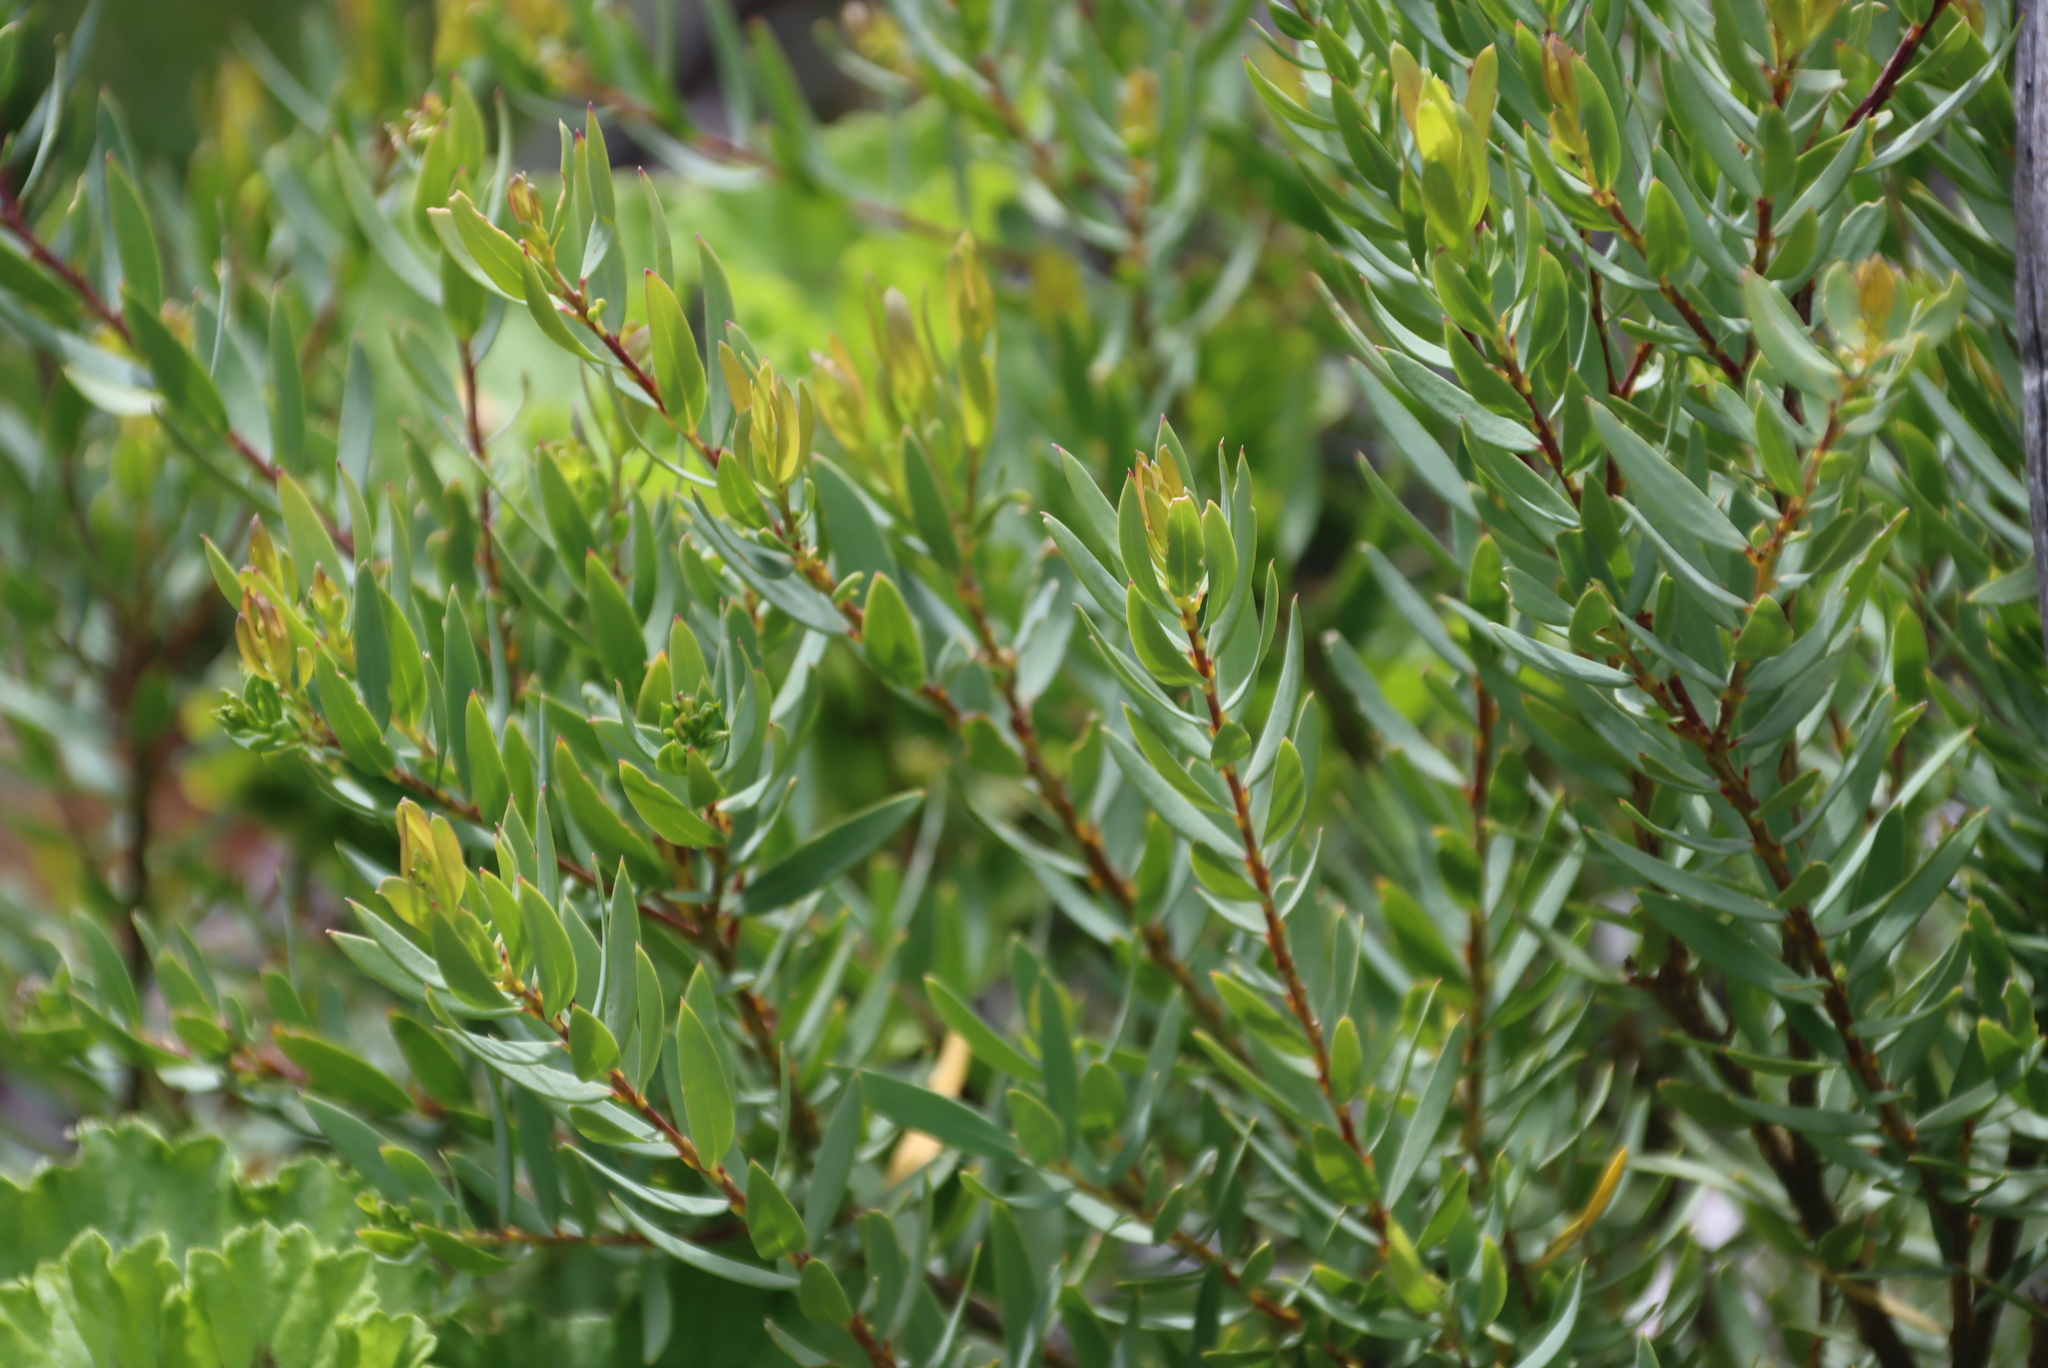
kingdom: Plantae
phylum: Tracheophyta
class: Magnoliopsida
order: Malpighiales
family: Peraceae
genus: Clutia
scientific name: Clutia pulchella
